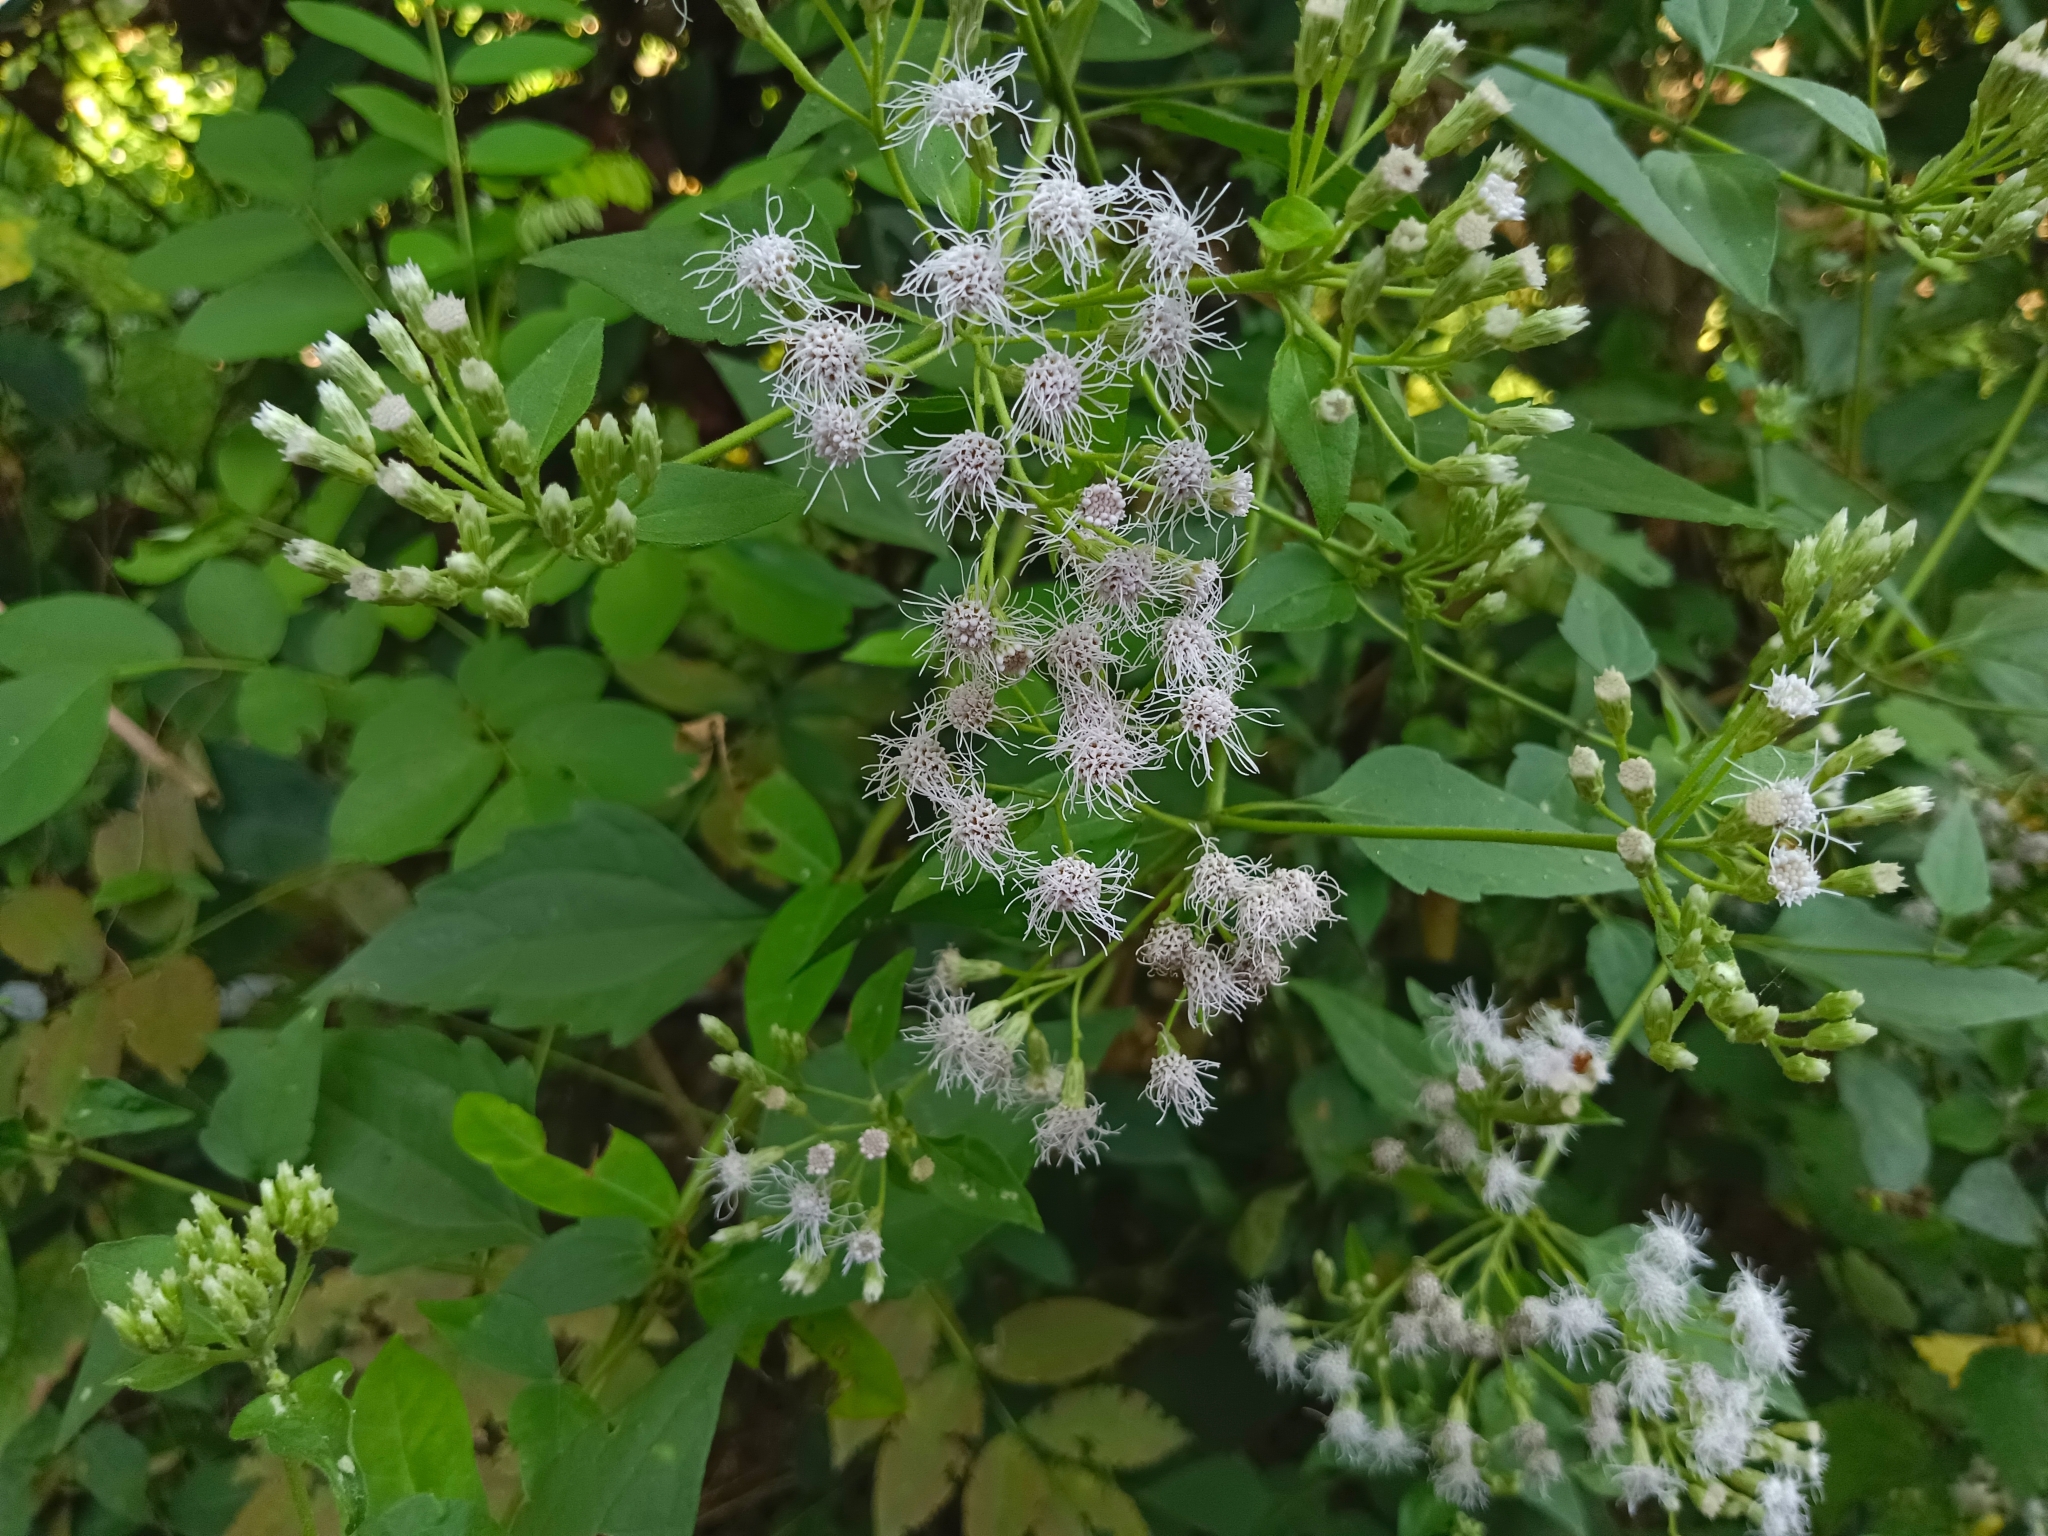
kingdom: Plantae
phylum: Tracheophyta
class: Magnoliopsida
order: Asterales
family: Asteraceae
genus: Chromolaena
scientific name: Chromolaena odorata
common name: Siamweed
